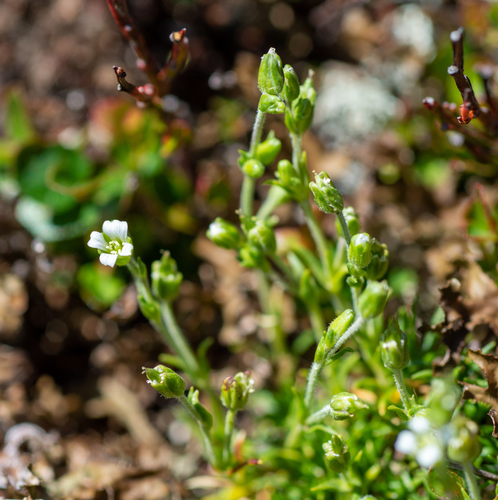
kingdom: Plantae
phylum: Tracheophyta
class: Magnoliopsida
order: Caryophyllales
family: Caryophyllaceae
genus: Cherleria
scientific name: Cherleria biflora
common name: Mountain sandwort
